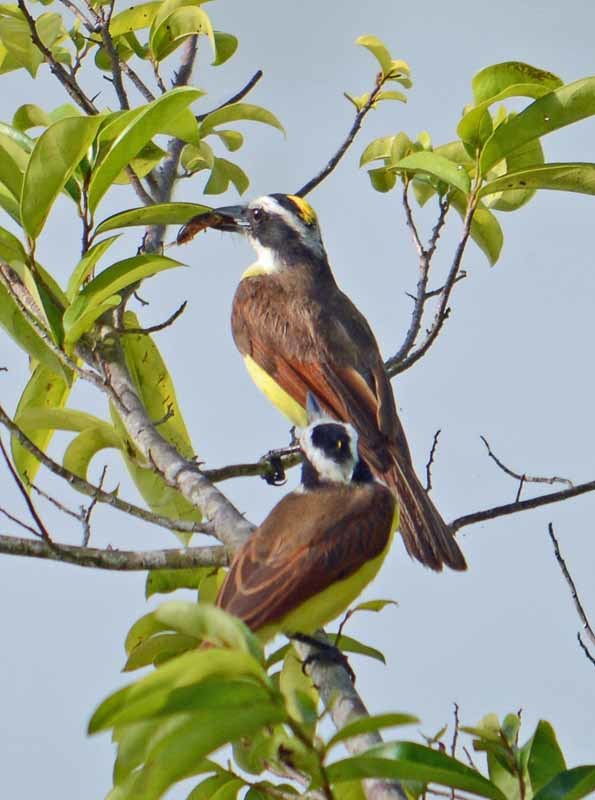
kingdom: Animalia
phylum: Chordata
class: Aves
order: Passeriformes
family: Tyrannidae
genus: Pitangus
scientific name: Pitangus sulphuratus
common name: Great kiskadee
